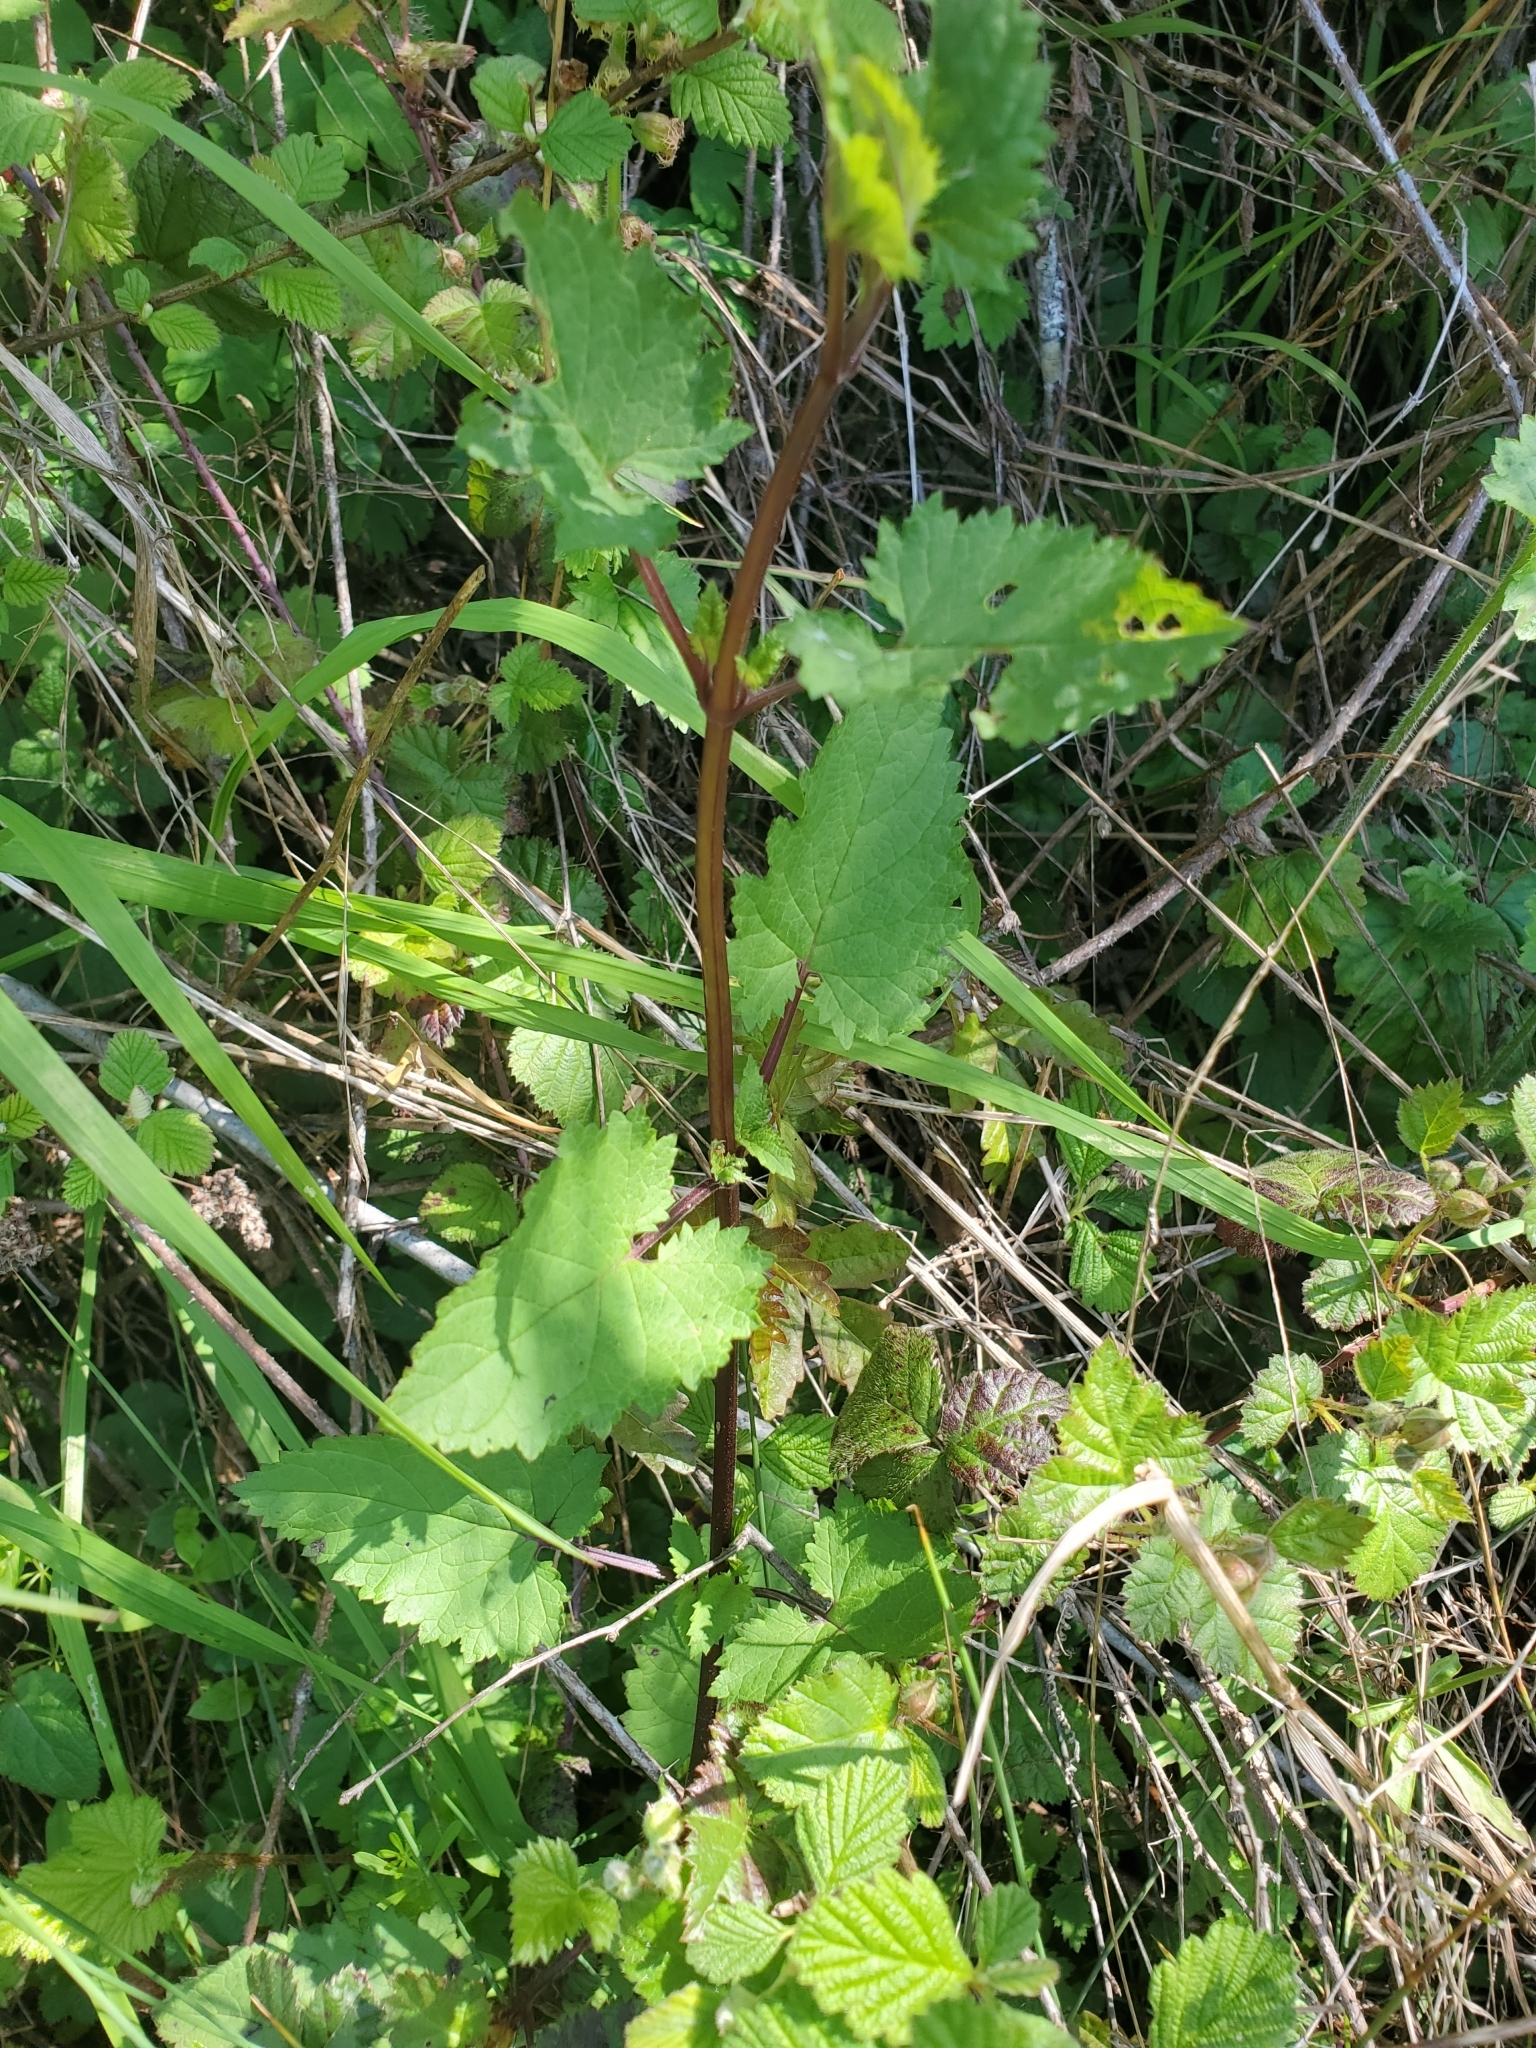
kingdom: Plantae
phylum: Tracheophyta
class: Magnoliopsida
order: Lamiales
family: Scrophulariaceae
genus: Scrophularia
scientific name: Scrophularia californica
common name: California figwort
